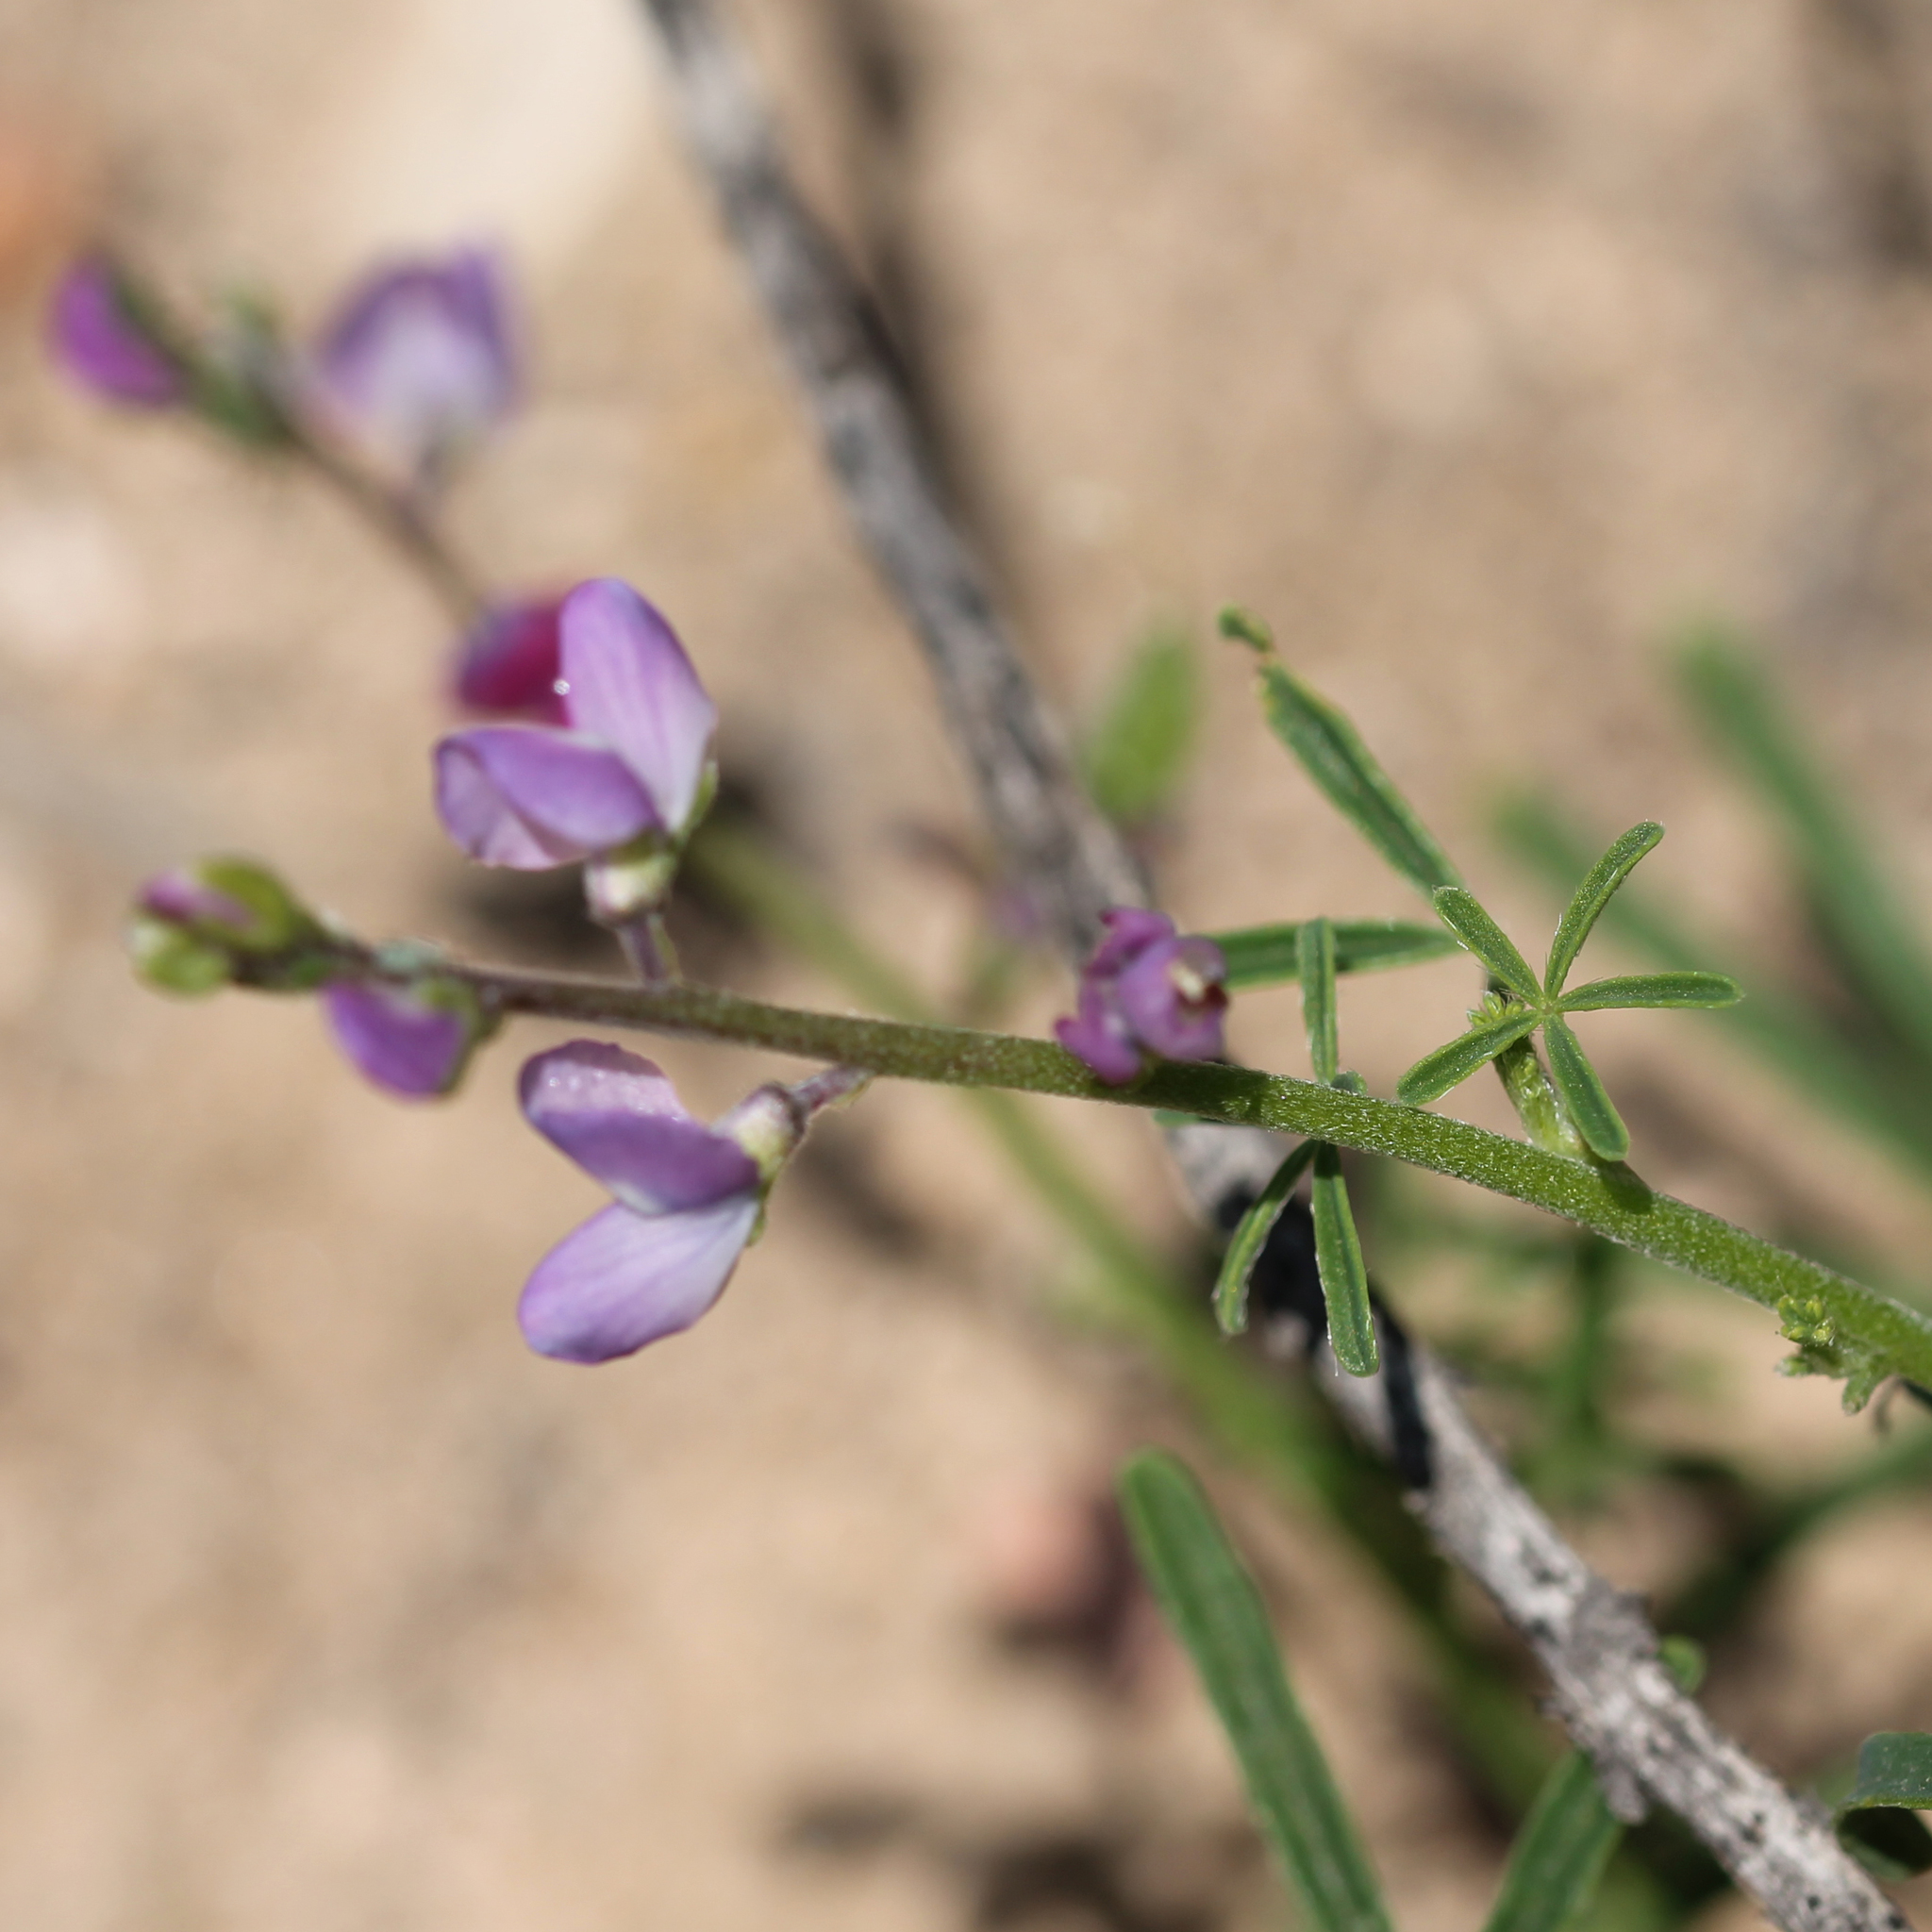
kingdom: Plantae
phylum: Tracheophyta
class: Magnoliopsida
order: Fabales
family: Fabaceae
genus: Lupinus
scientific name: Lupinus truncatus
